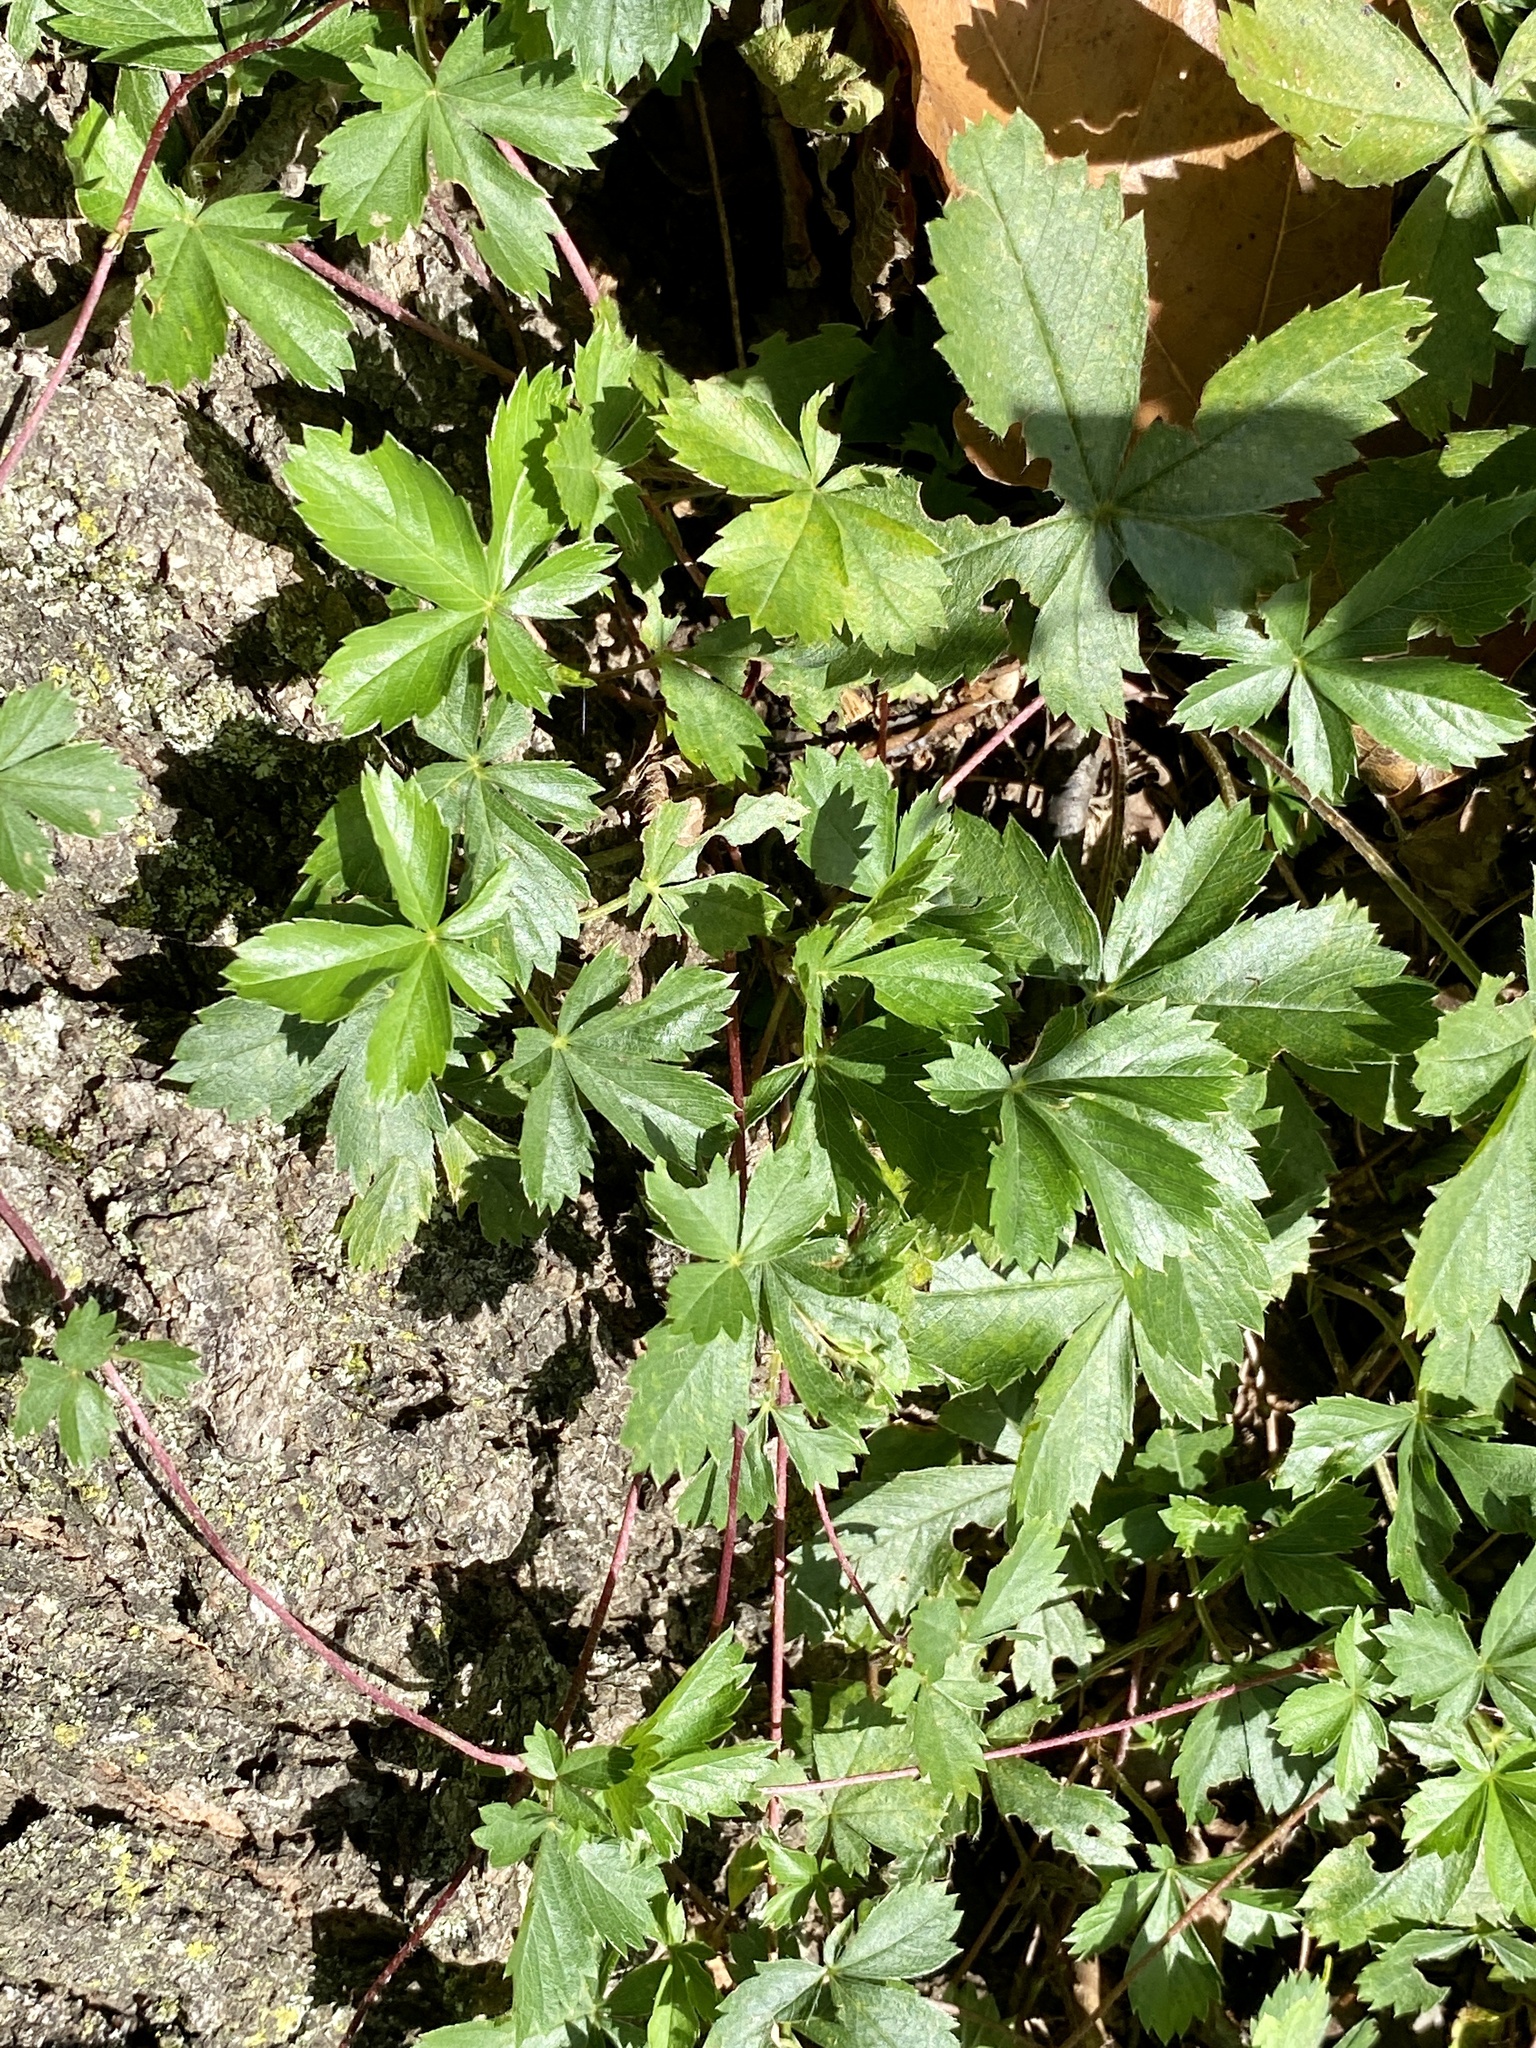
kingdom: Plantae
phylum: Tracheophyta
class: Magnoliopsida
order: Rosales
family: Rosaceae
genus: Potentilla
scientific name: Potentilla canadensis
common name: Canada cinquefoil
